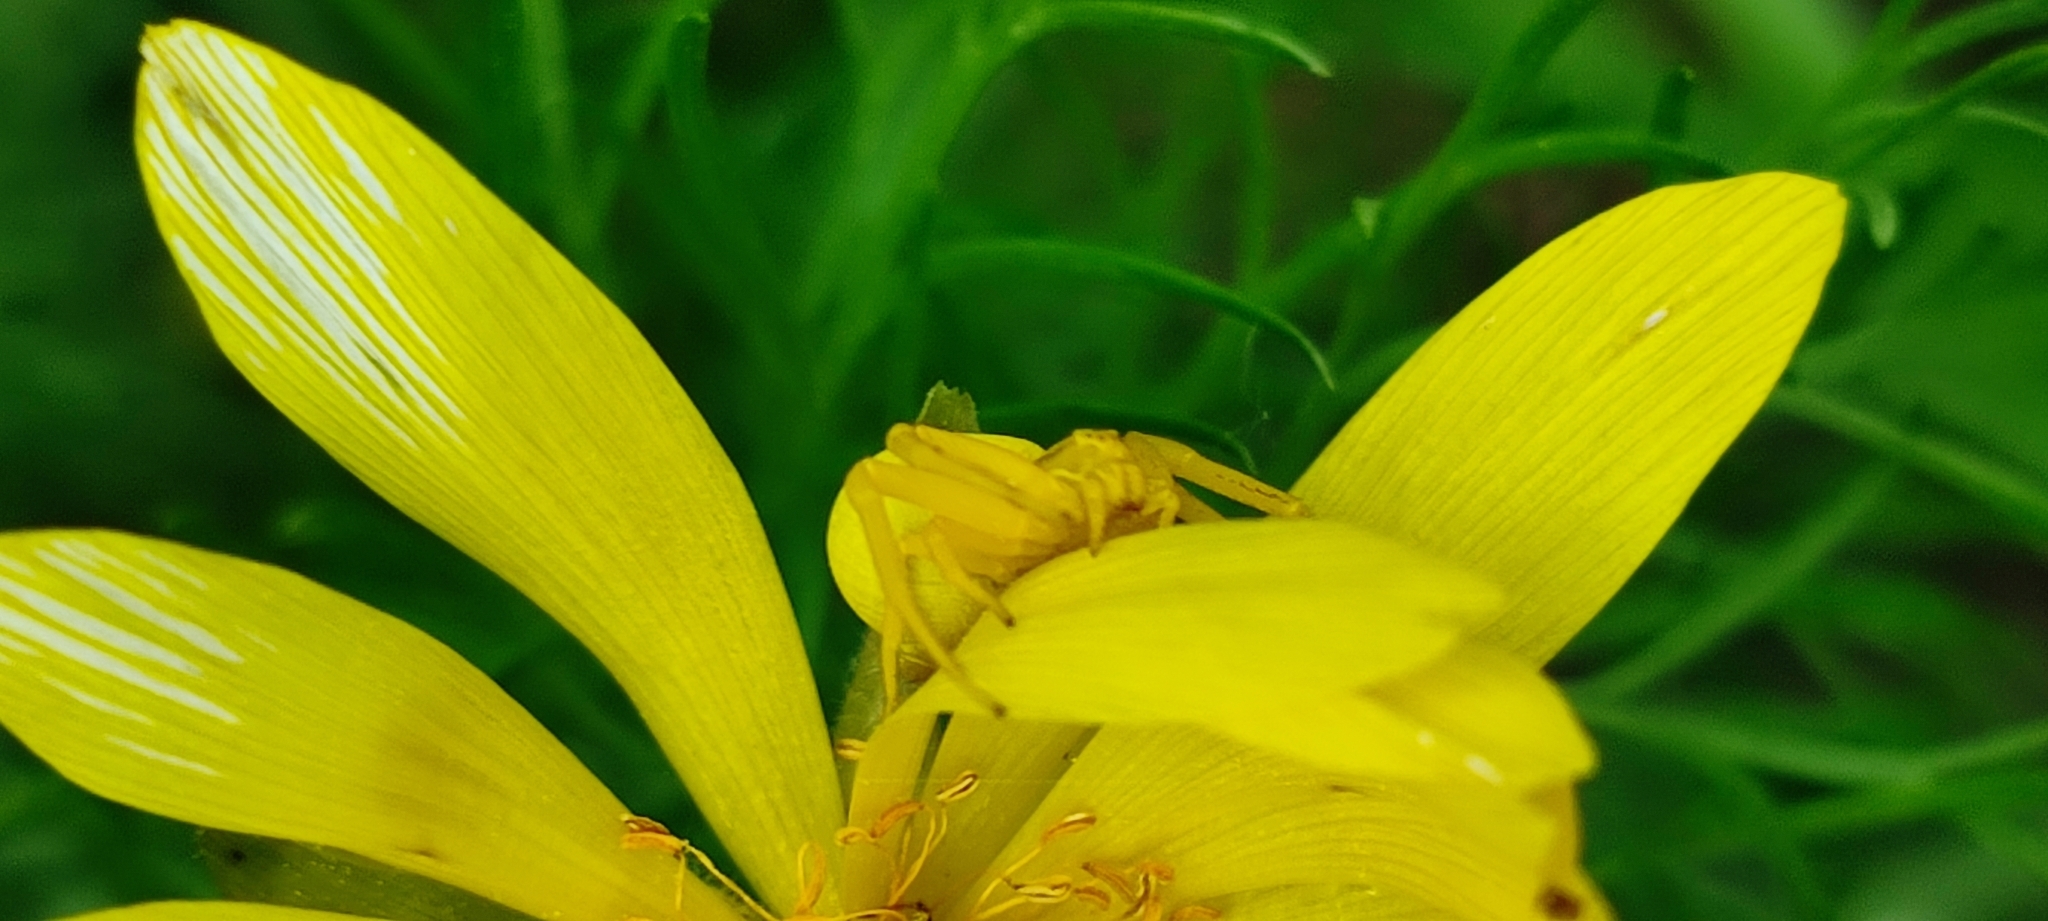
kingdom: Animalia
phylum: Arthropoda
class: Arachnida
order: Araneae
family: Thomisidae
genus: Misumena
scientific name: Misumena vatia
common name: Goldenrod crab spider
